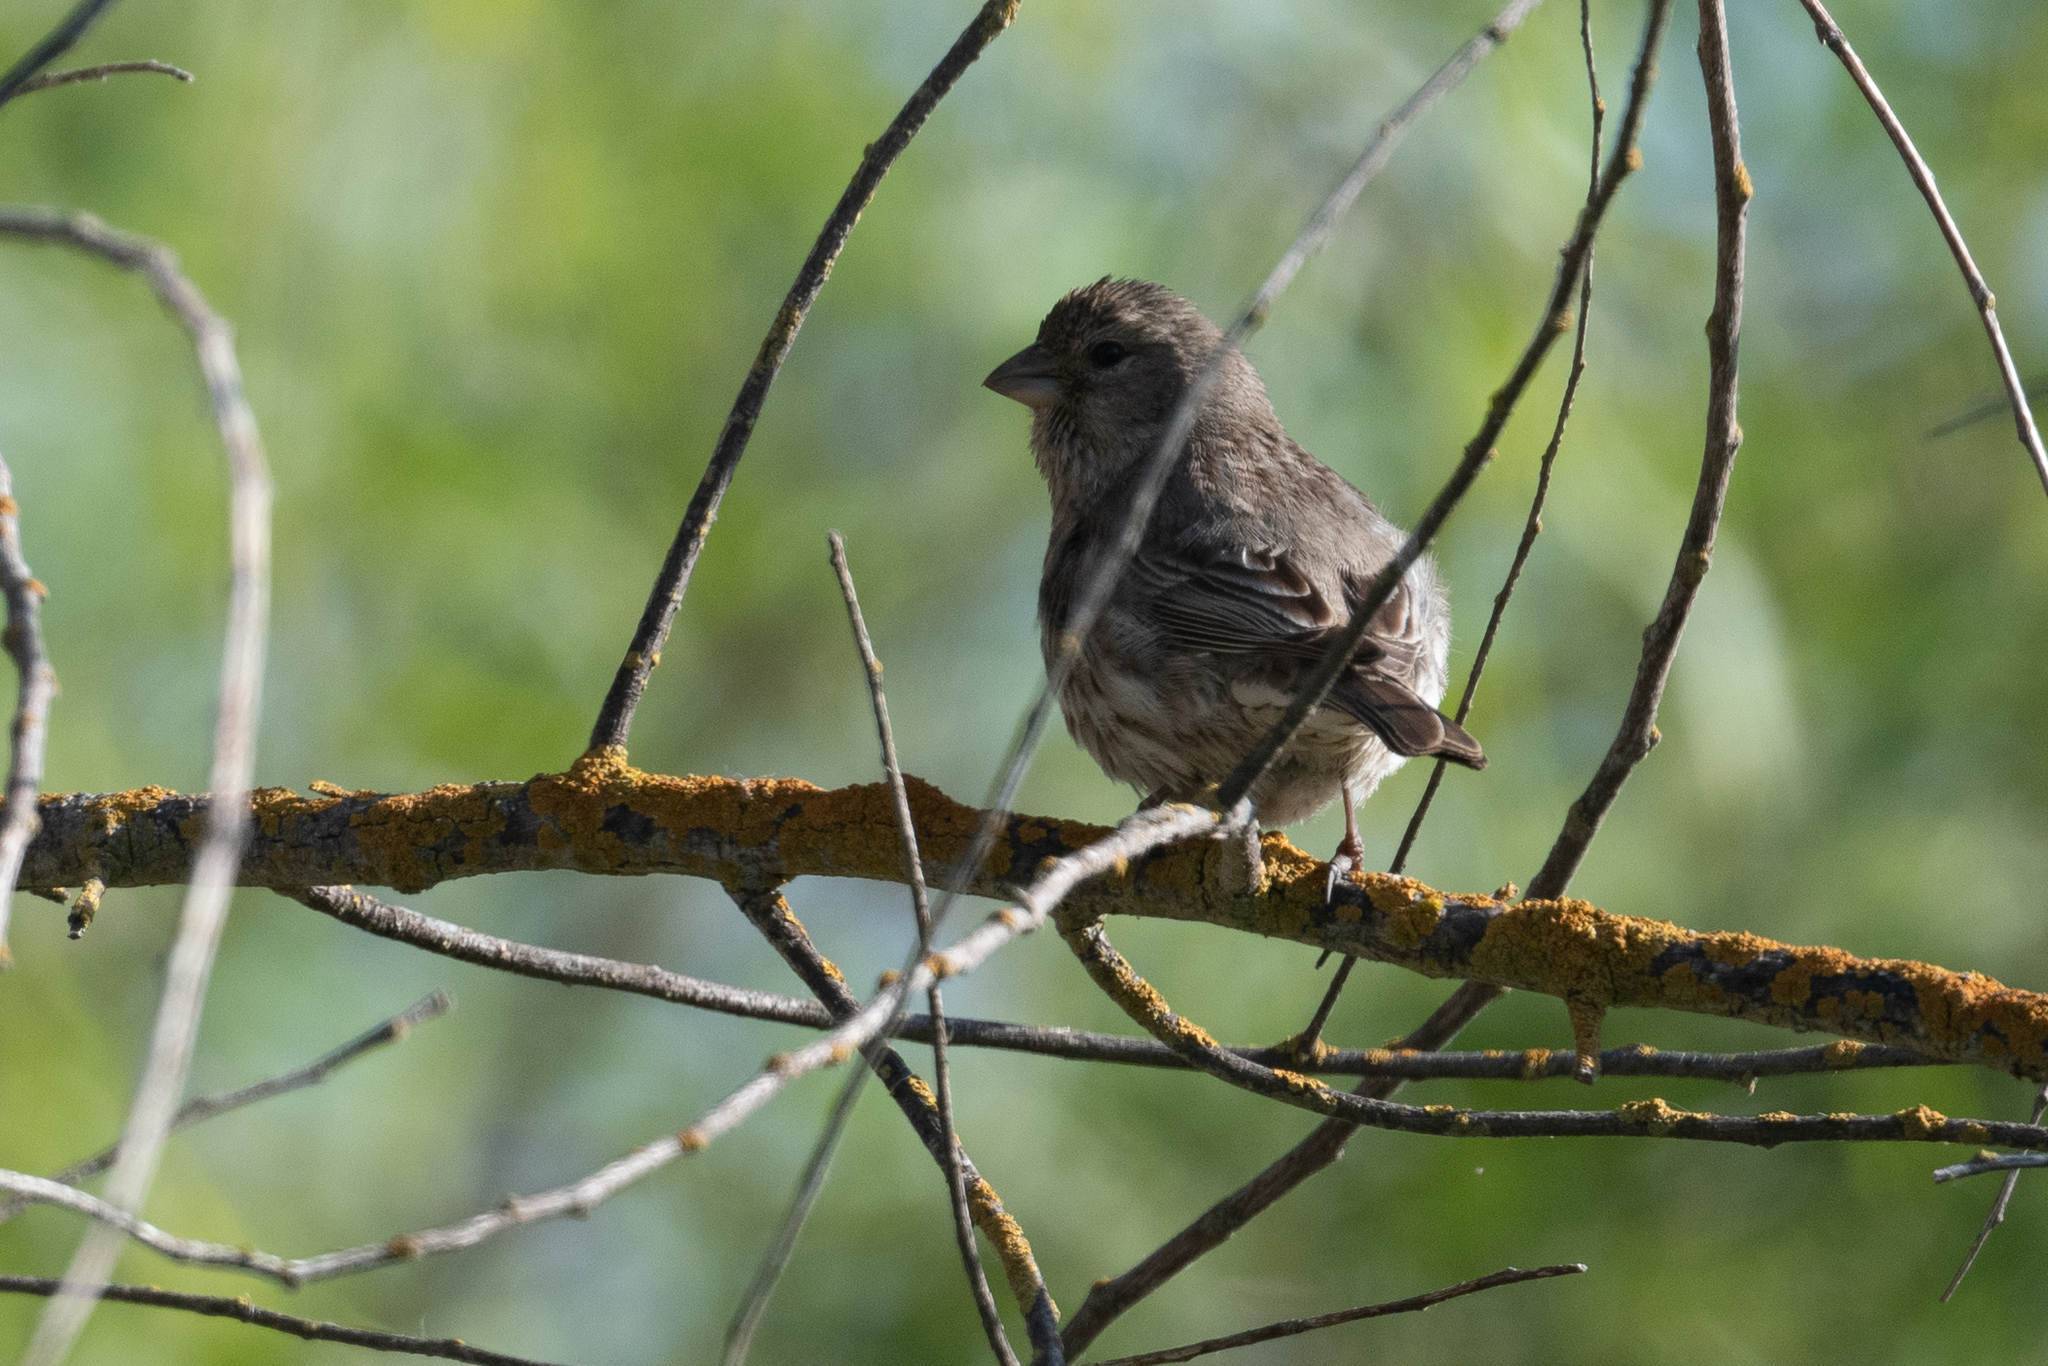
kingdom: Animalia
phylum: Chordata
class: Aves
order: Passeriformes
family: Fringillidae
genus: Haemorhous
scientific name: Haemorhous mexicanus
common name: House finch
